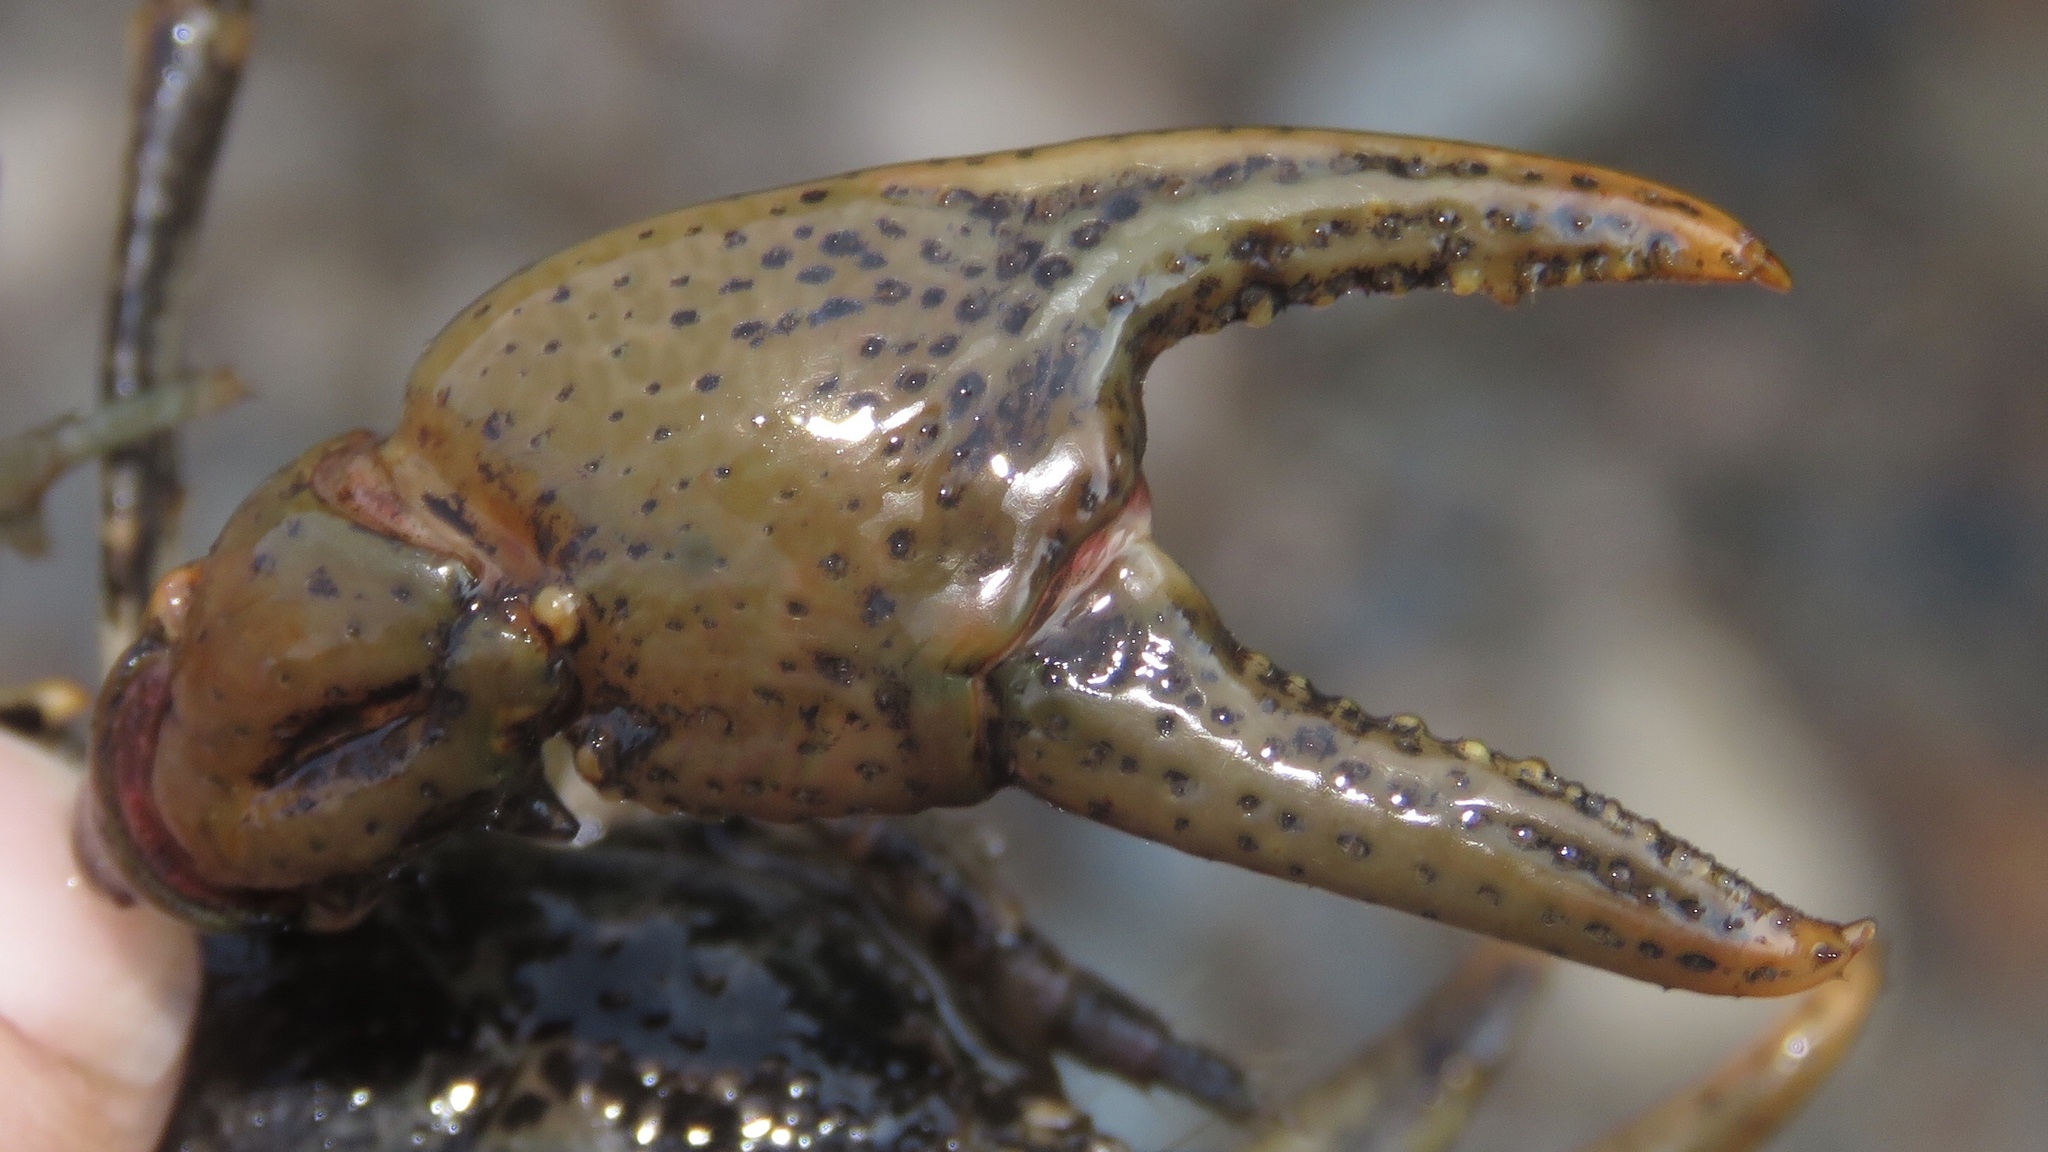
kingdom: Animalia
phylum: Arthropoda
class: Malacostraca
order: Decapoda
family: Cambaridae
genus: Cambarus
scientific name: Cambarus bartonii
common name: Appalachian brook crayfish
